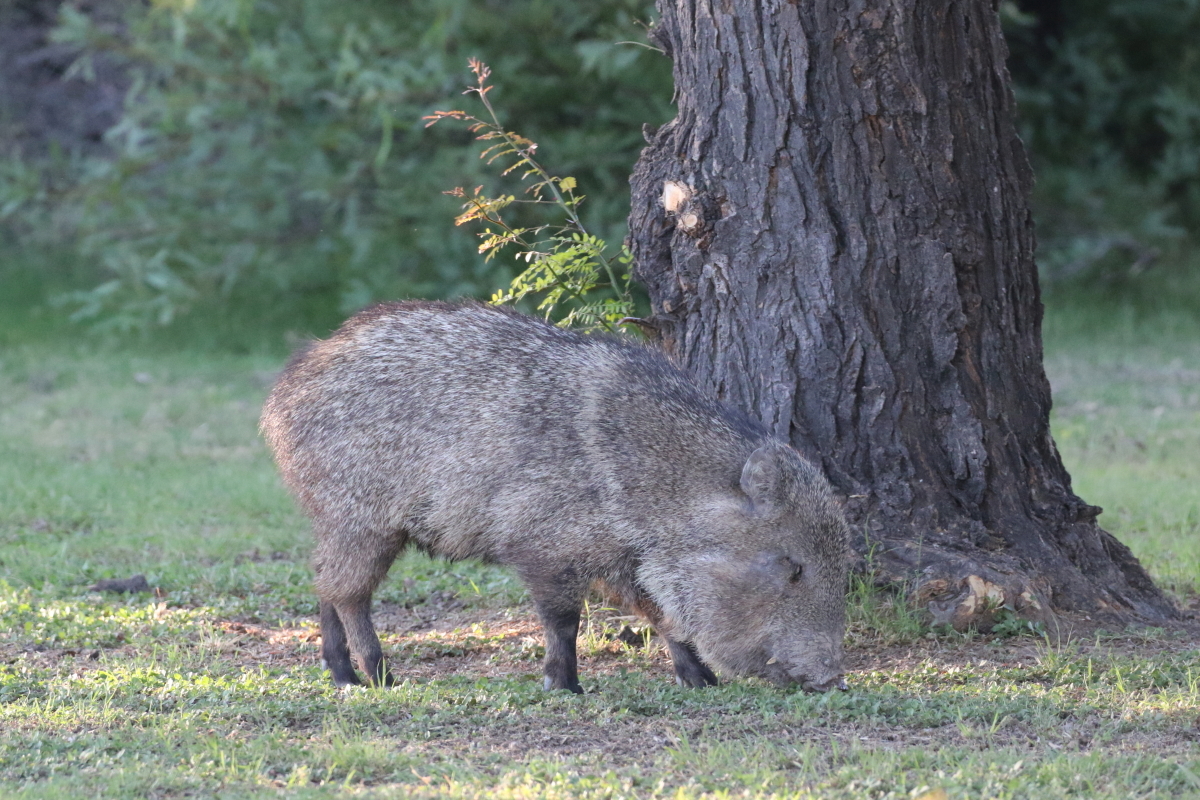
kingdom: Animalia
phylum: Chordata
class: Mammalia
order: Artiodactyla
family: Tayassuidae
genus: Pecari
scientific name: Pecari tajacu
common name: Collared peccary
